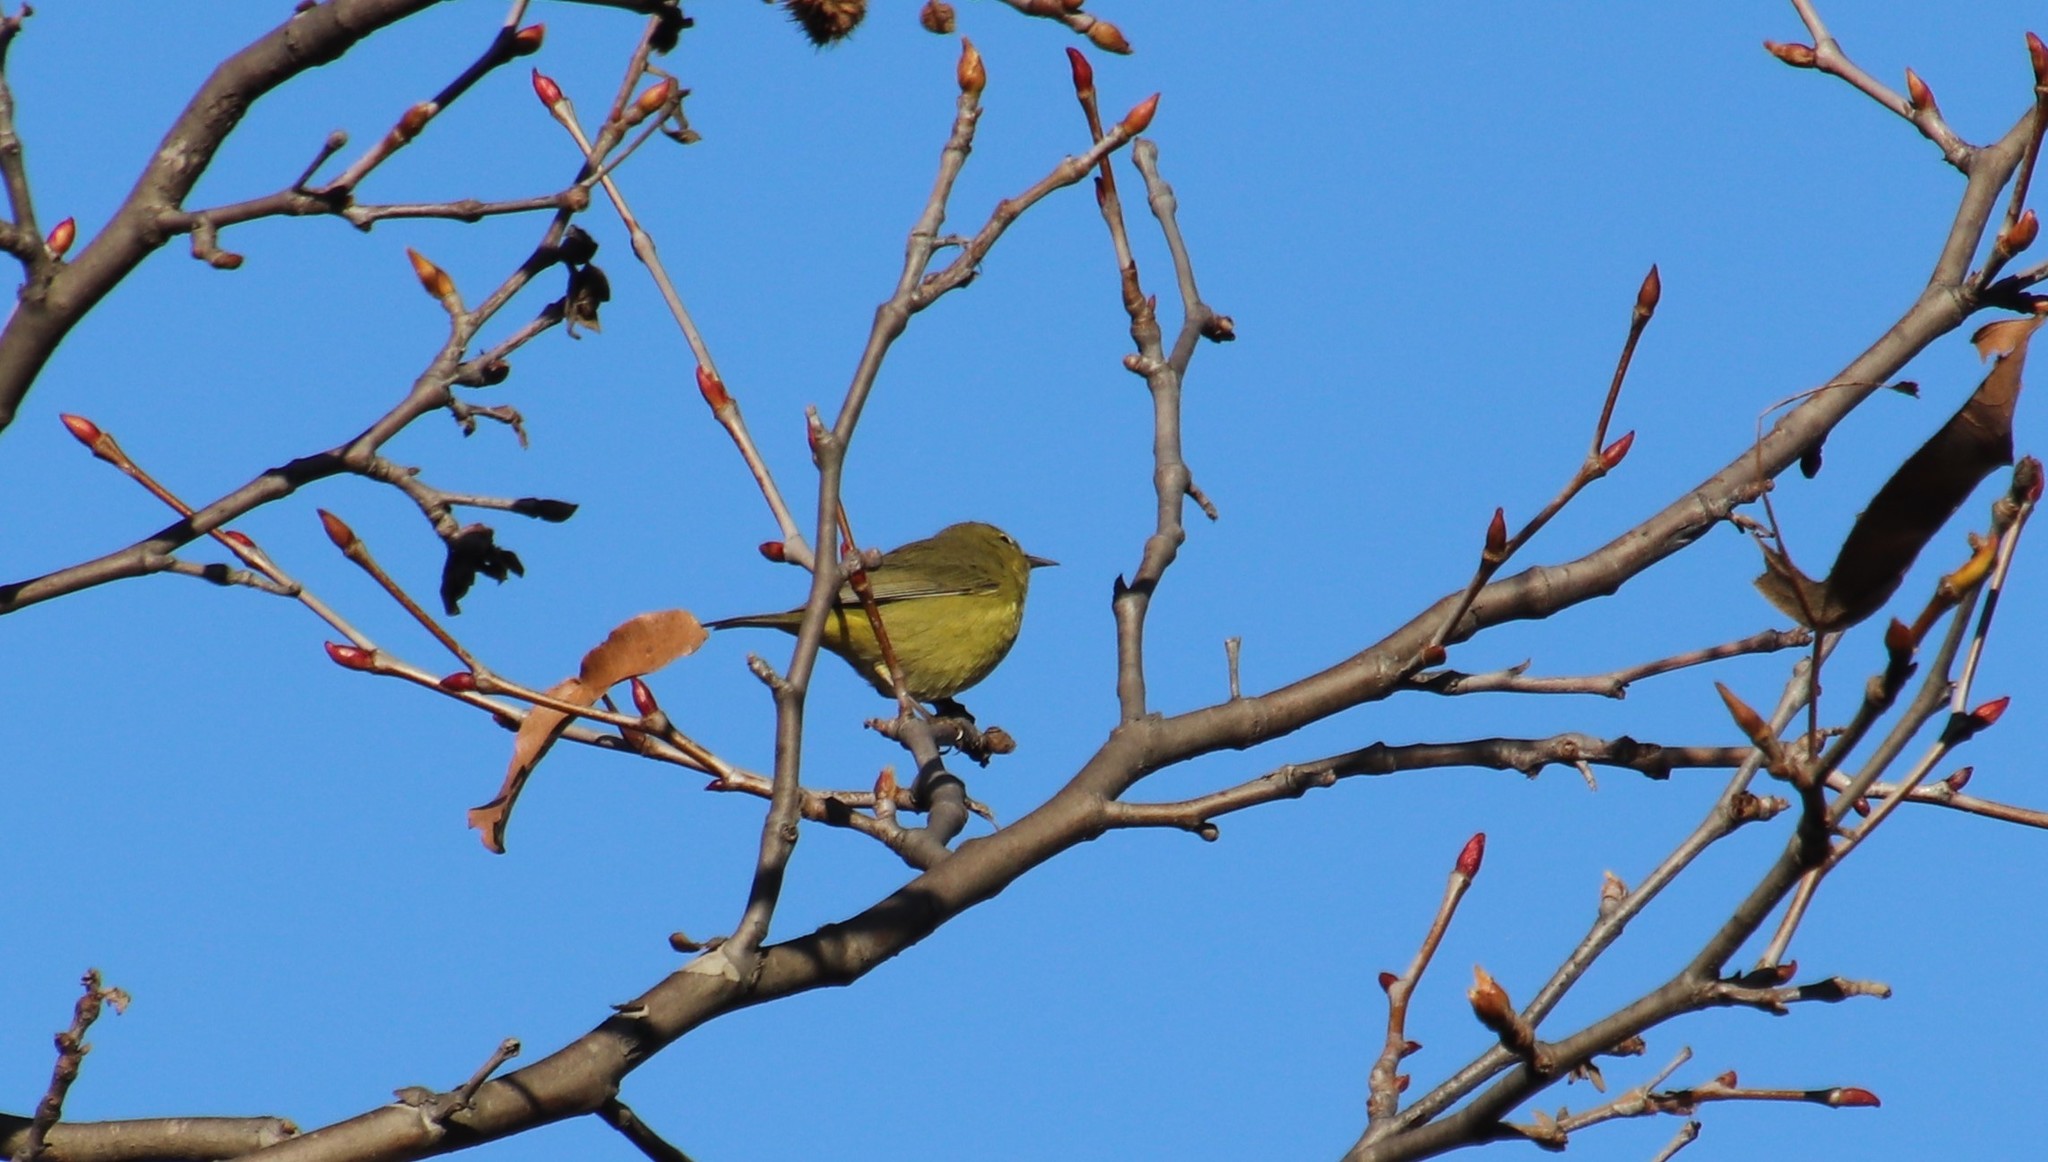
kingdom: Animalia
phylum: Chordata
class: Aves
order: Passeriformes
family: Parulidae
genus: Leiothlypis
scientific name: Leiothlypis celata
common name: Orange-crowned warbler
